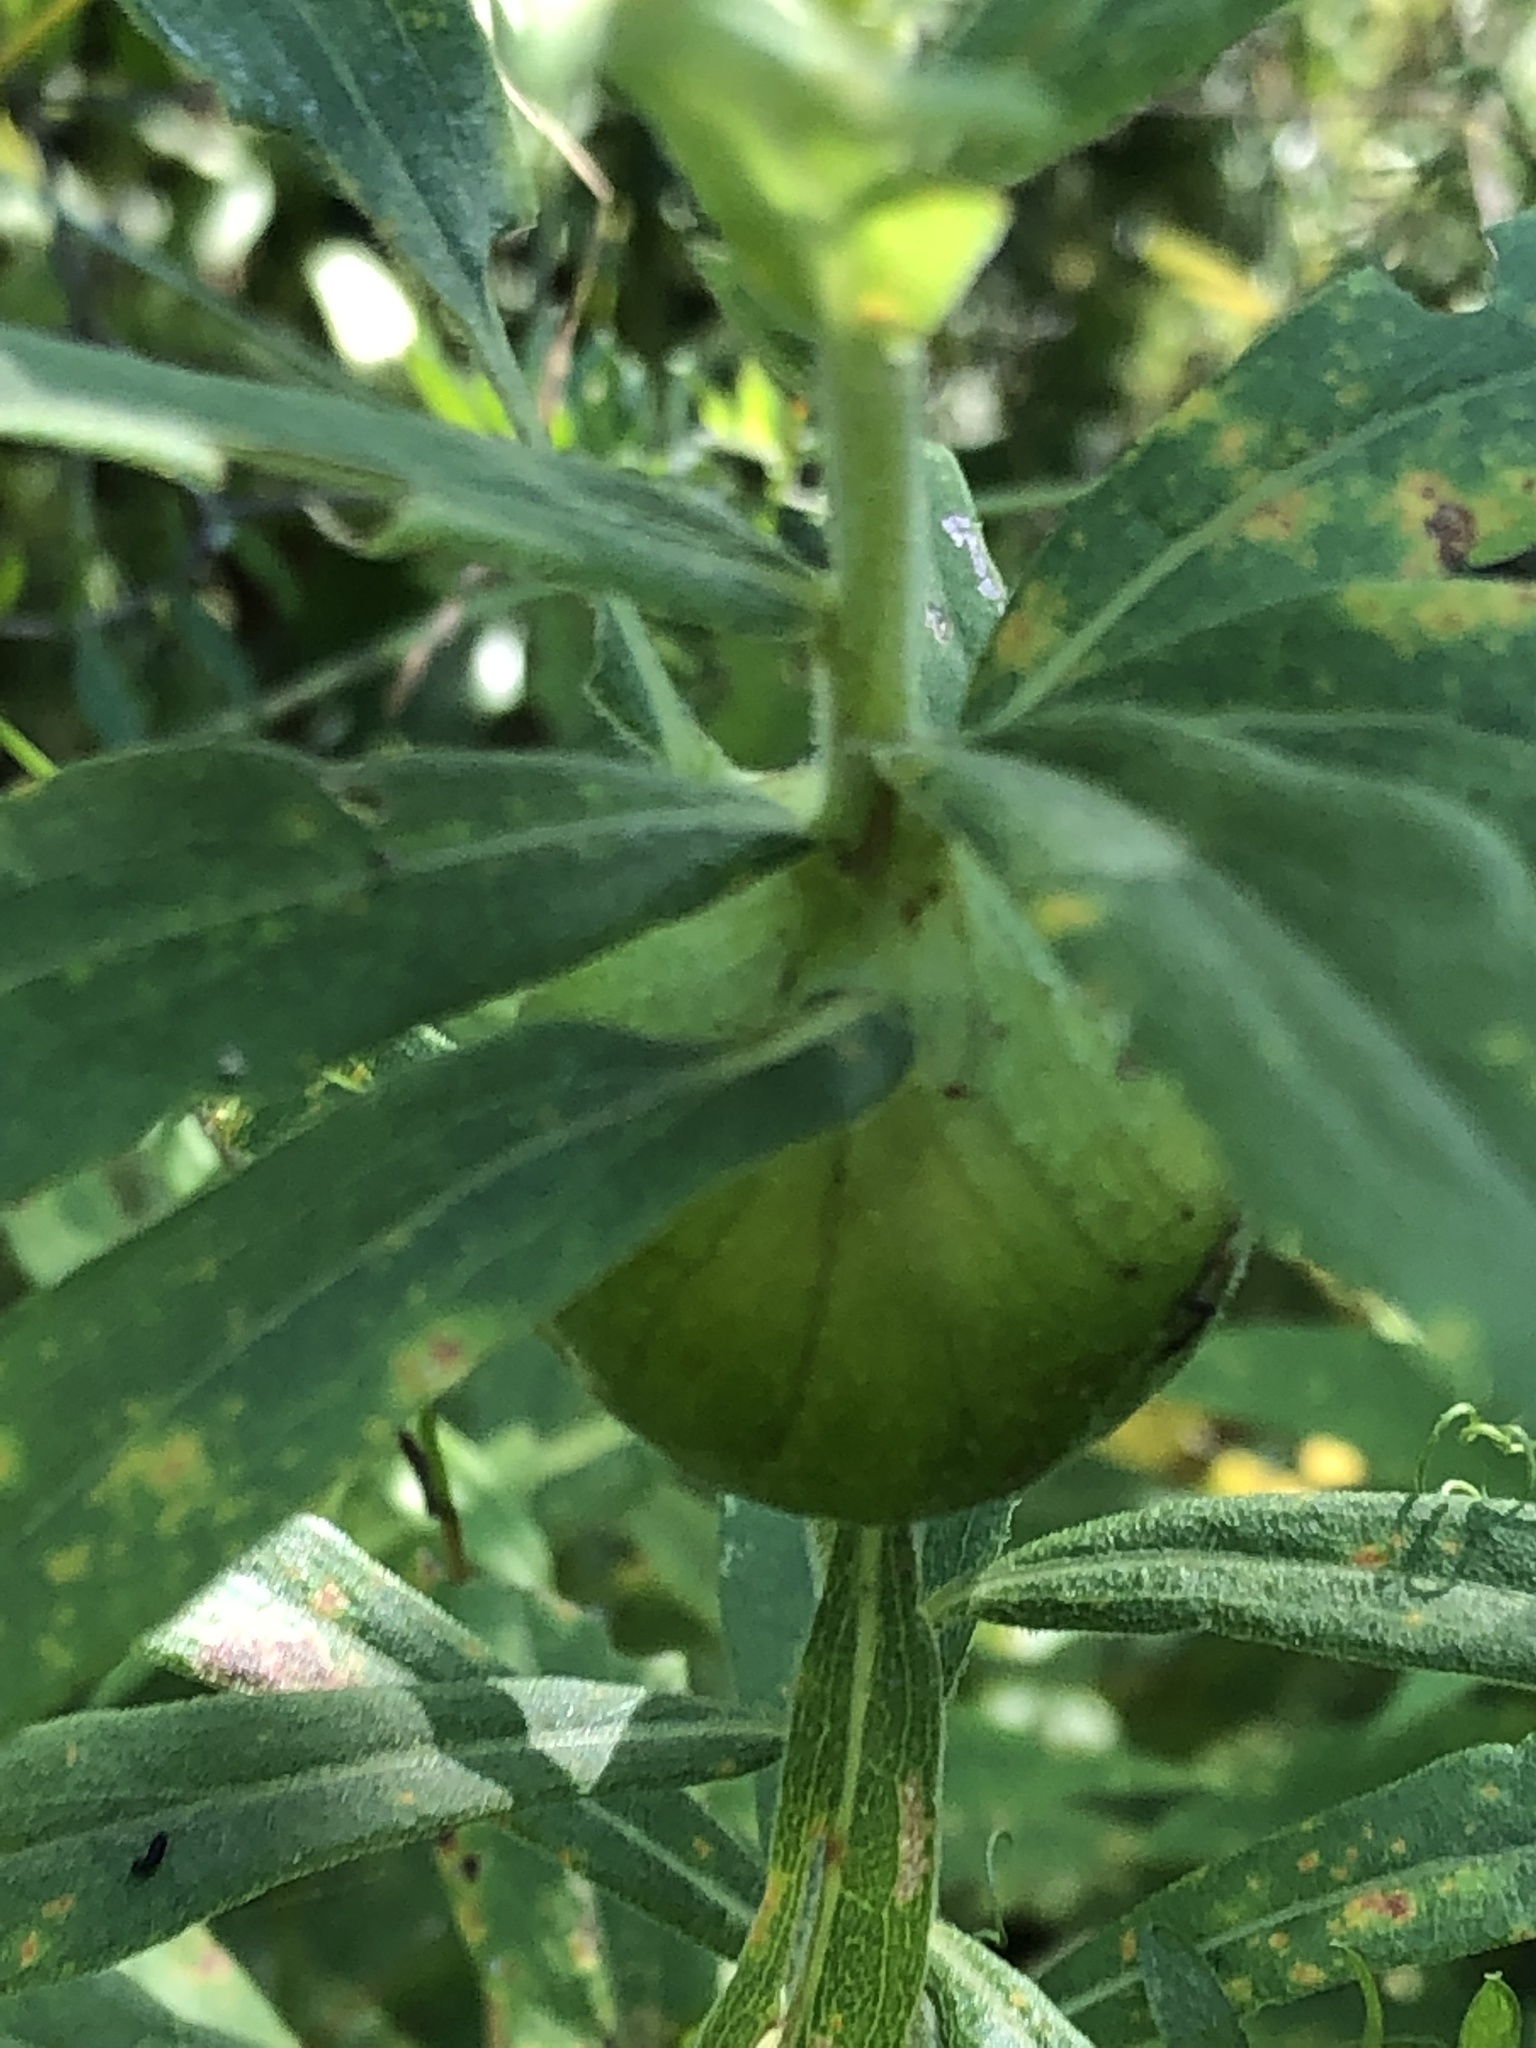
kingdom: Animalia
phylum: Arthropoda
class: Insecta
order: Diptera
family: Tephritidae
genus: Eurosta
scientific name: Eurosta solidaginis
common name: Goldenrod gall fly
